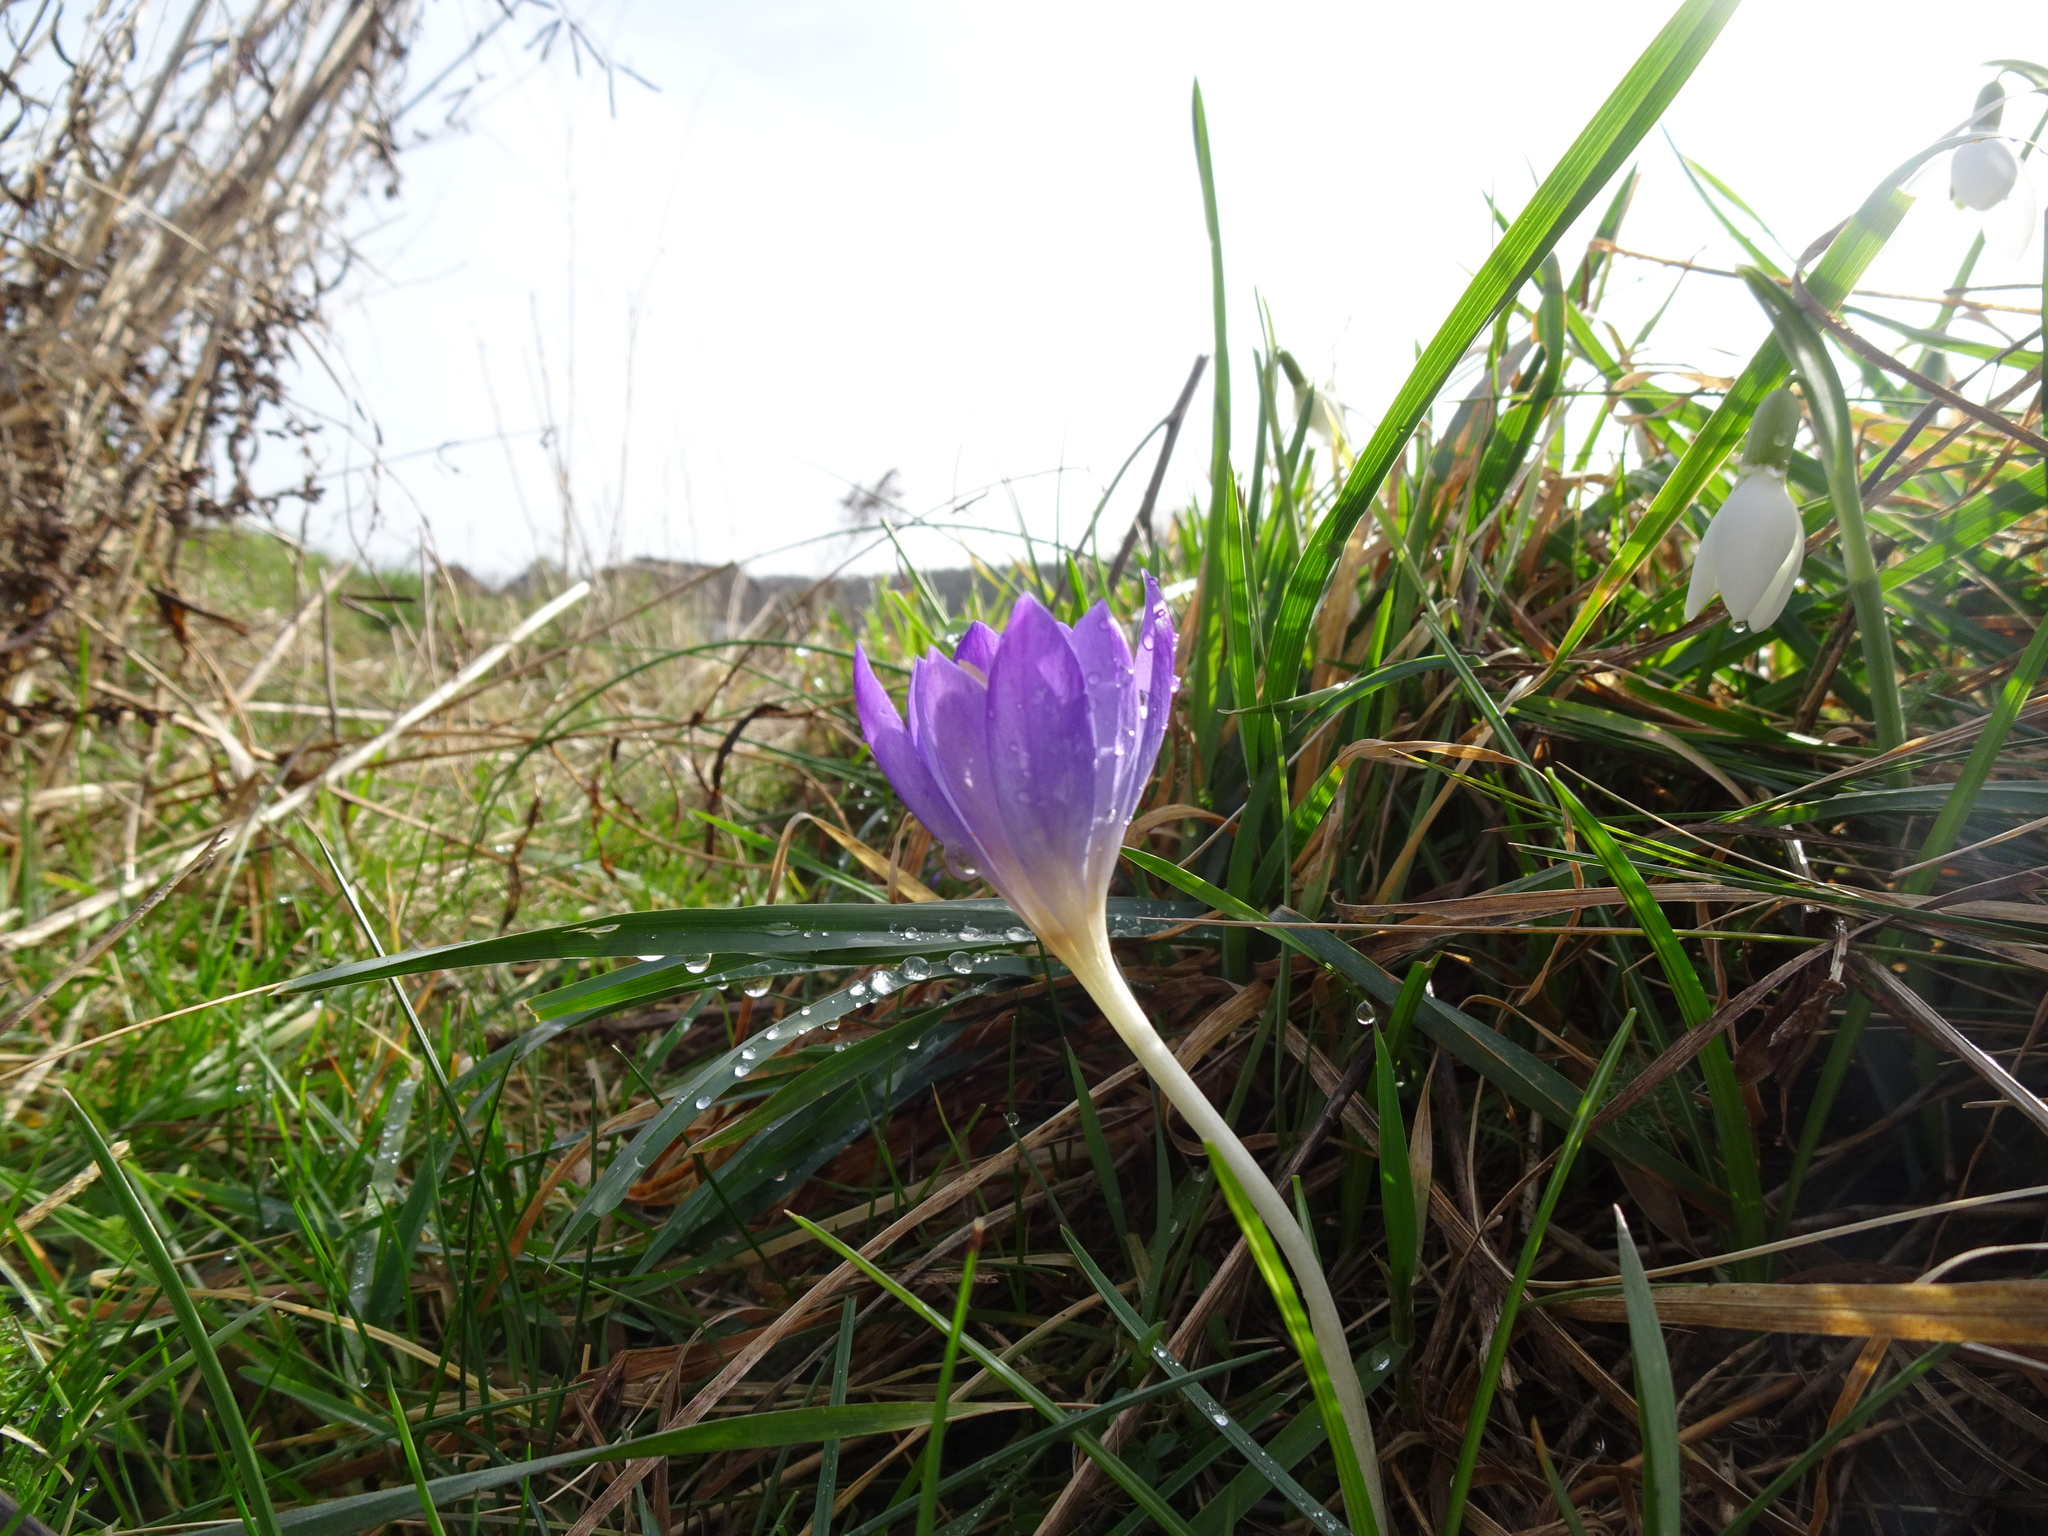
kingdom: Plantae
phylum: Tracheophyta
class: Liliopsida
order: Asparagales
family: Iridaceae
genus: Crocus
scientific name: Crocus tommasinianus
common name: Early crocus
